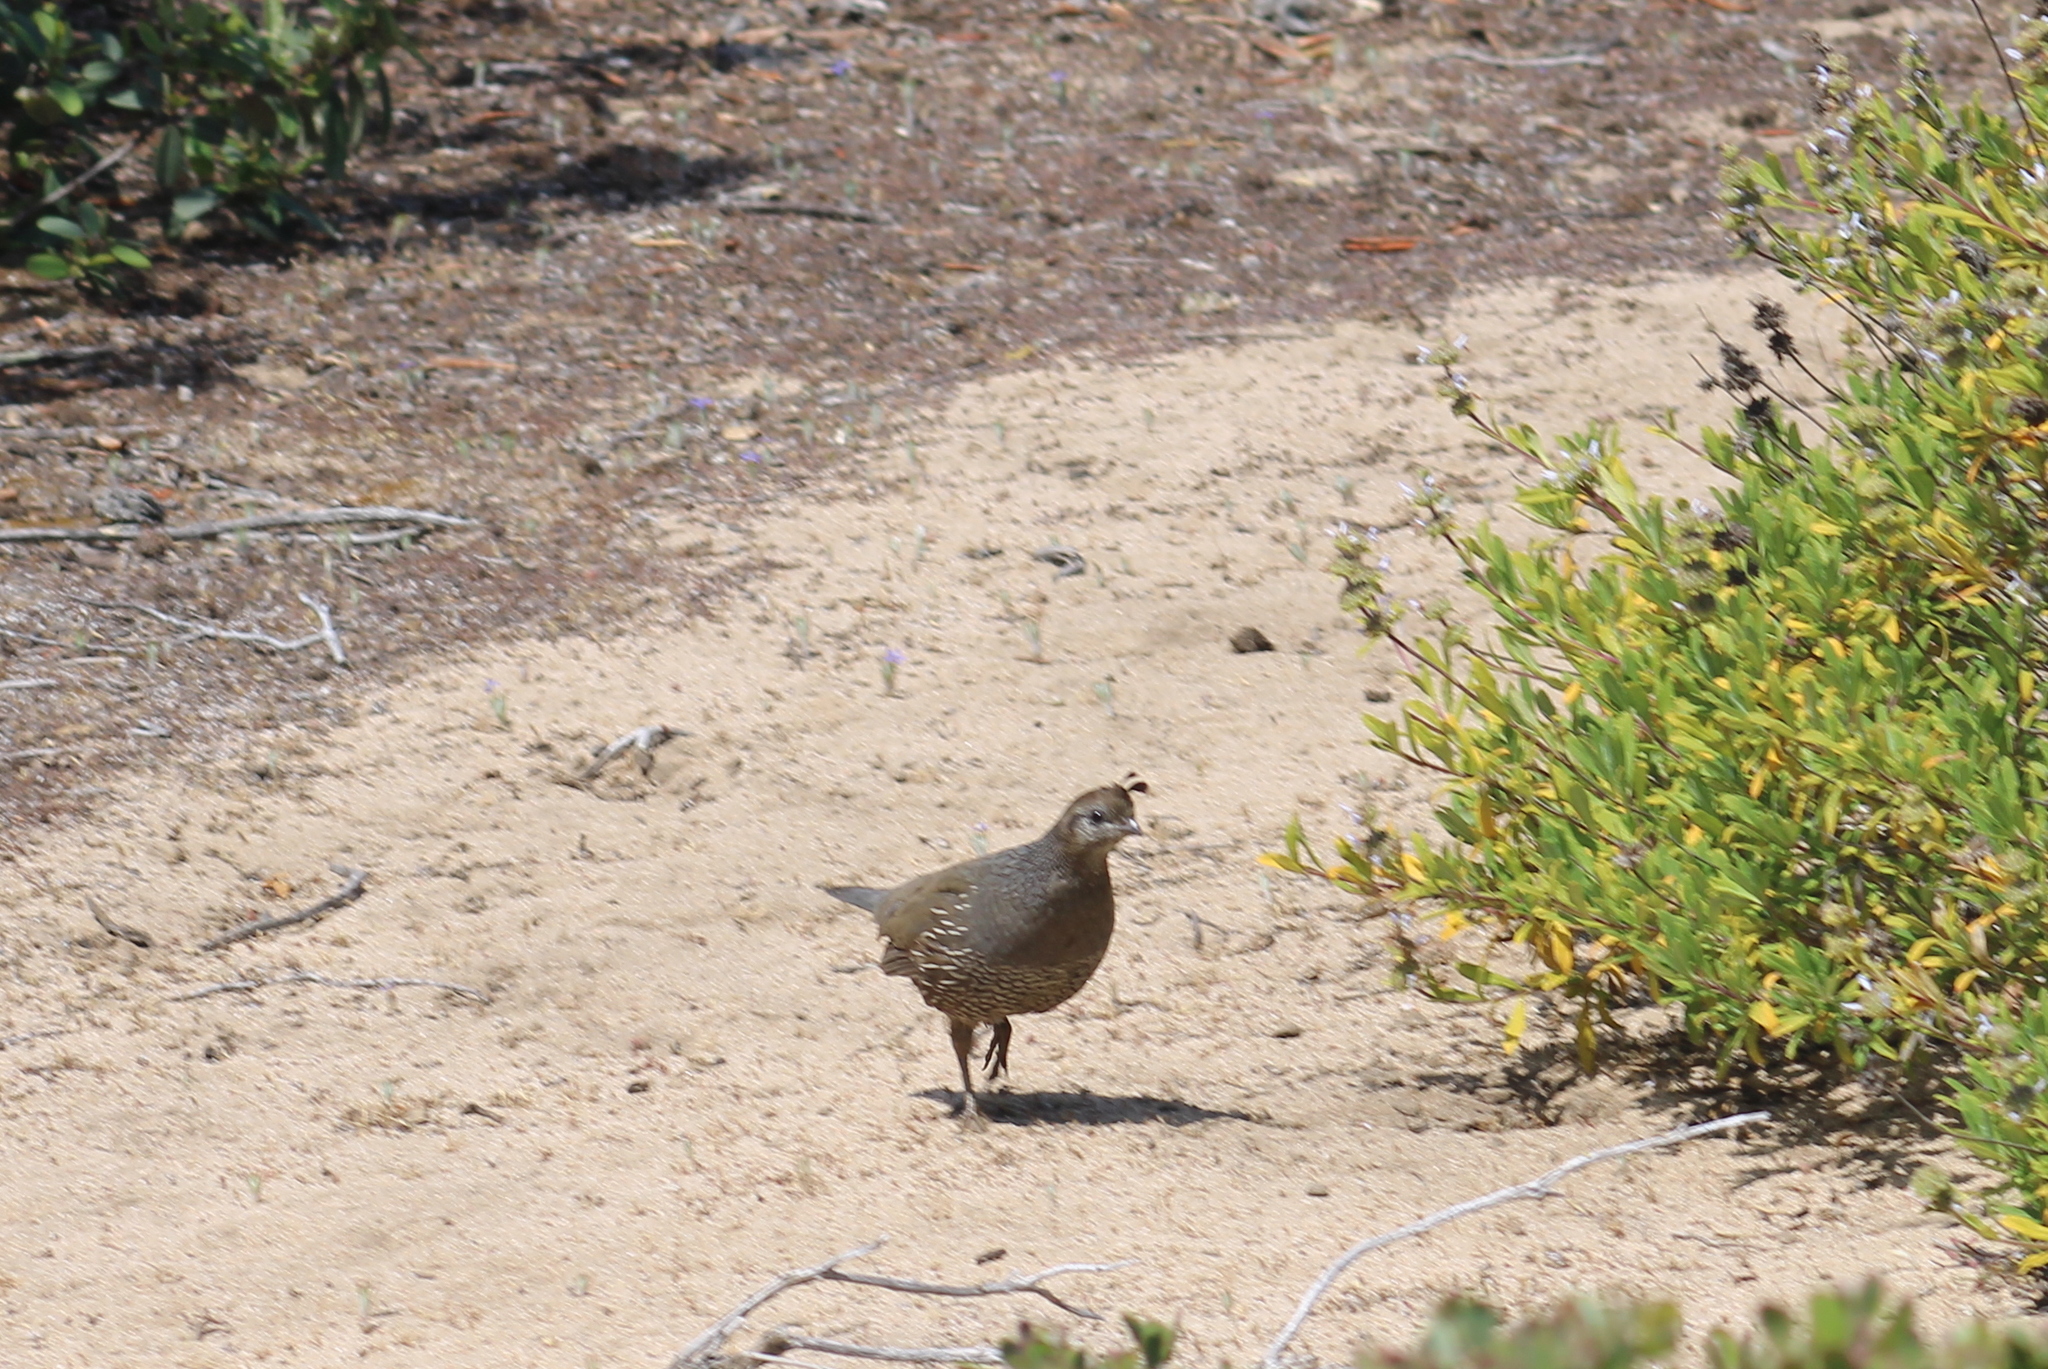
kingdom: Animalia
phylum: Chordata
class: Aves
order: Galliformes
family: Odontophoridae
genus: Callipepla
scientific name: Callipepla californica
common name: California quail
